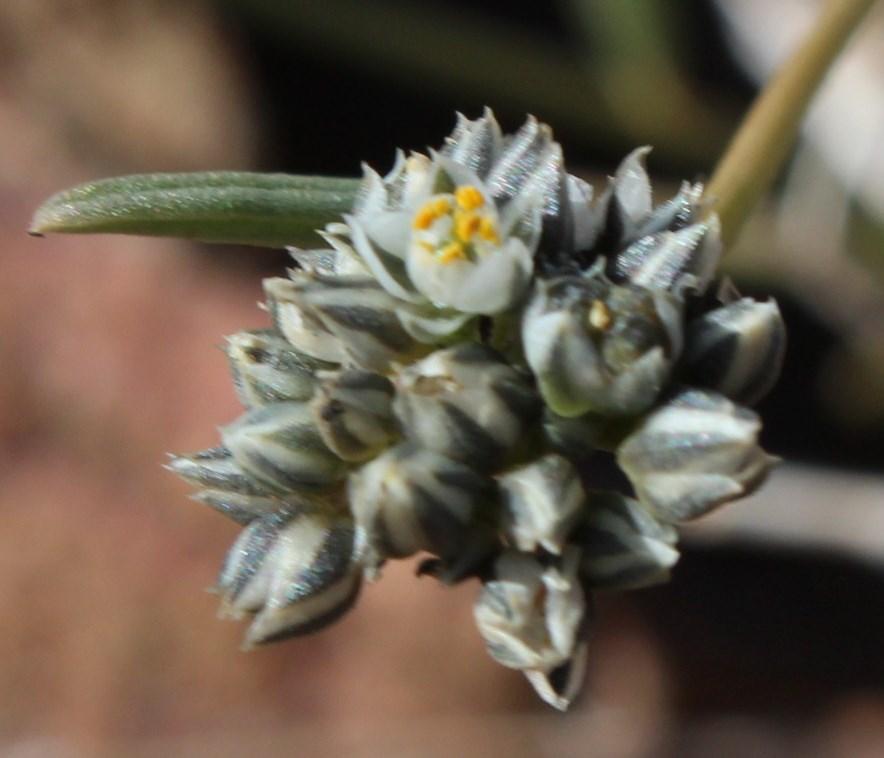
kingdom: Plantae
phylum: Tracheophyta
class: Magnoliopsida
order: Caryophyllales
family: Limeaceae
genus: Limeum
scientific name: Limeum aethiopicum
